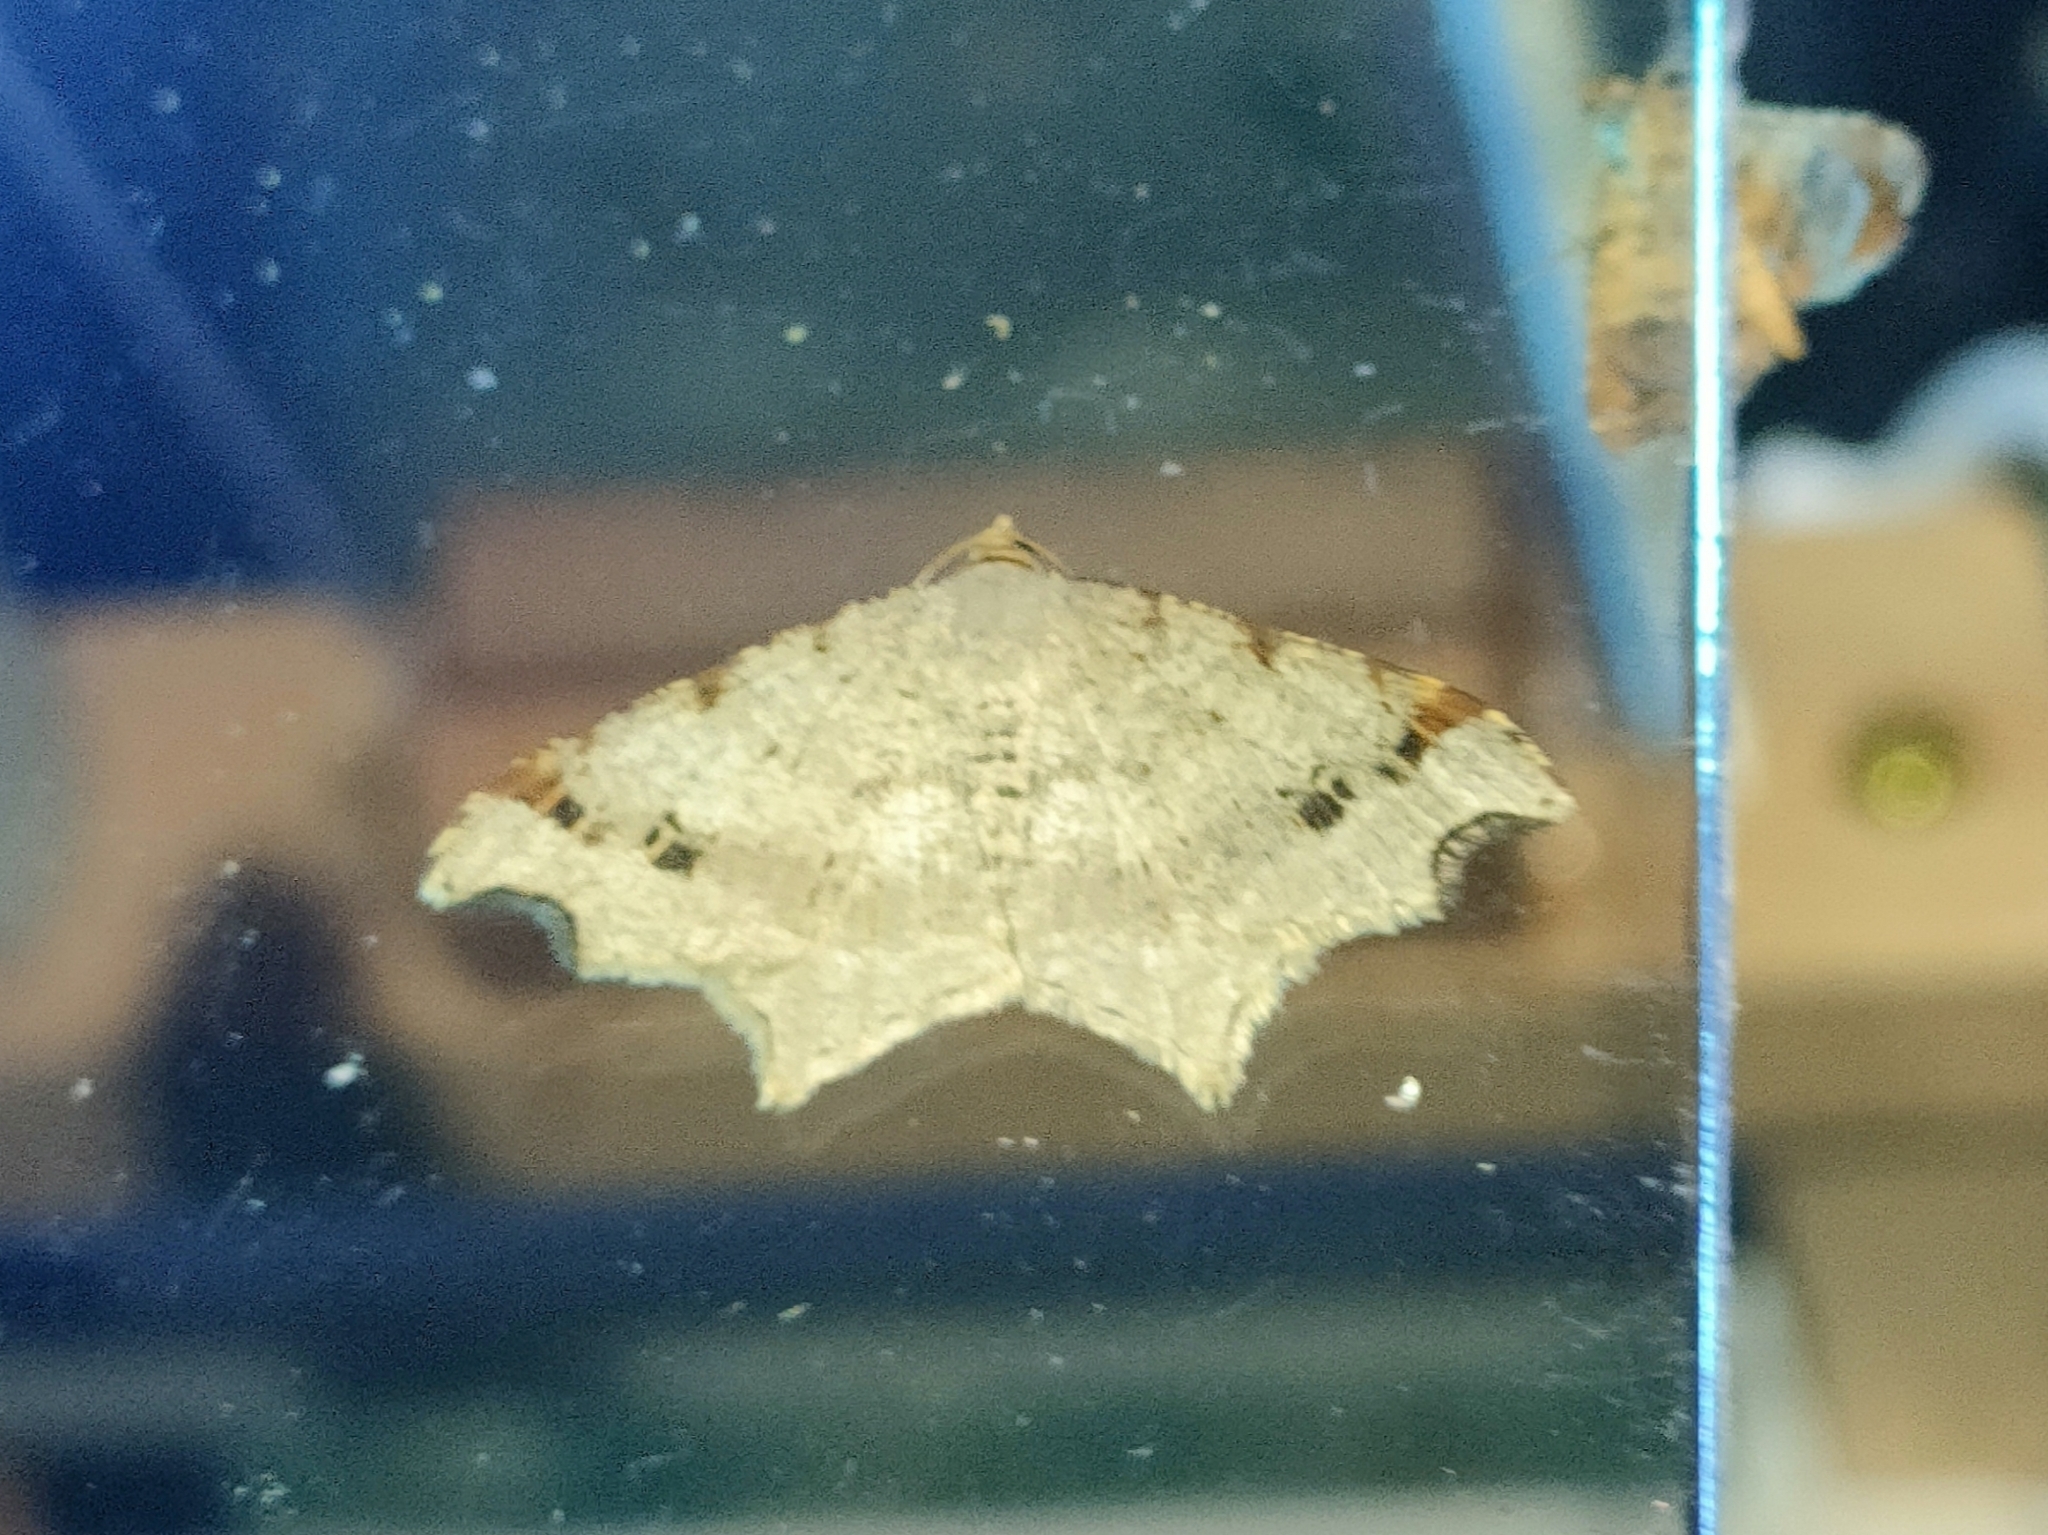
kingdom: Animalia
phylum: Arthropoda
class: Insecta
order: Lepidoptera
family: Geometridae
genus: Macaria
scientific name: Macaria alternata
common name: Sharp-angled peacock
